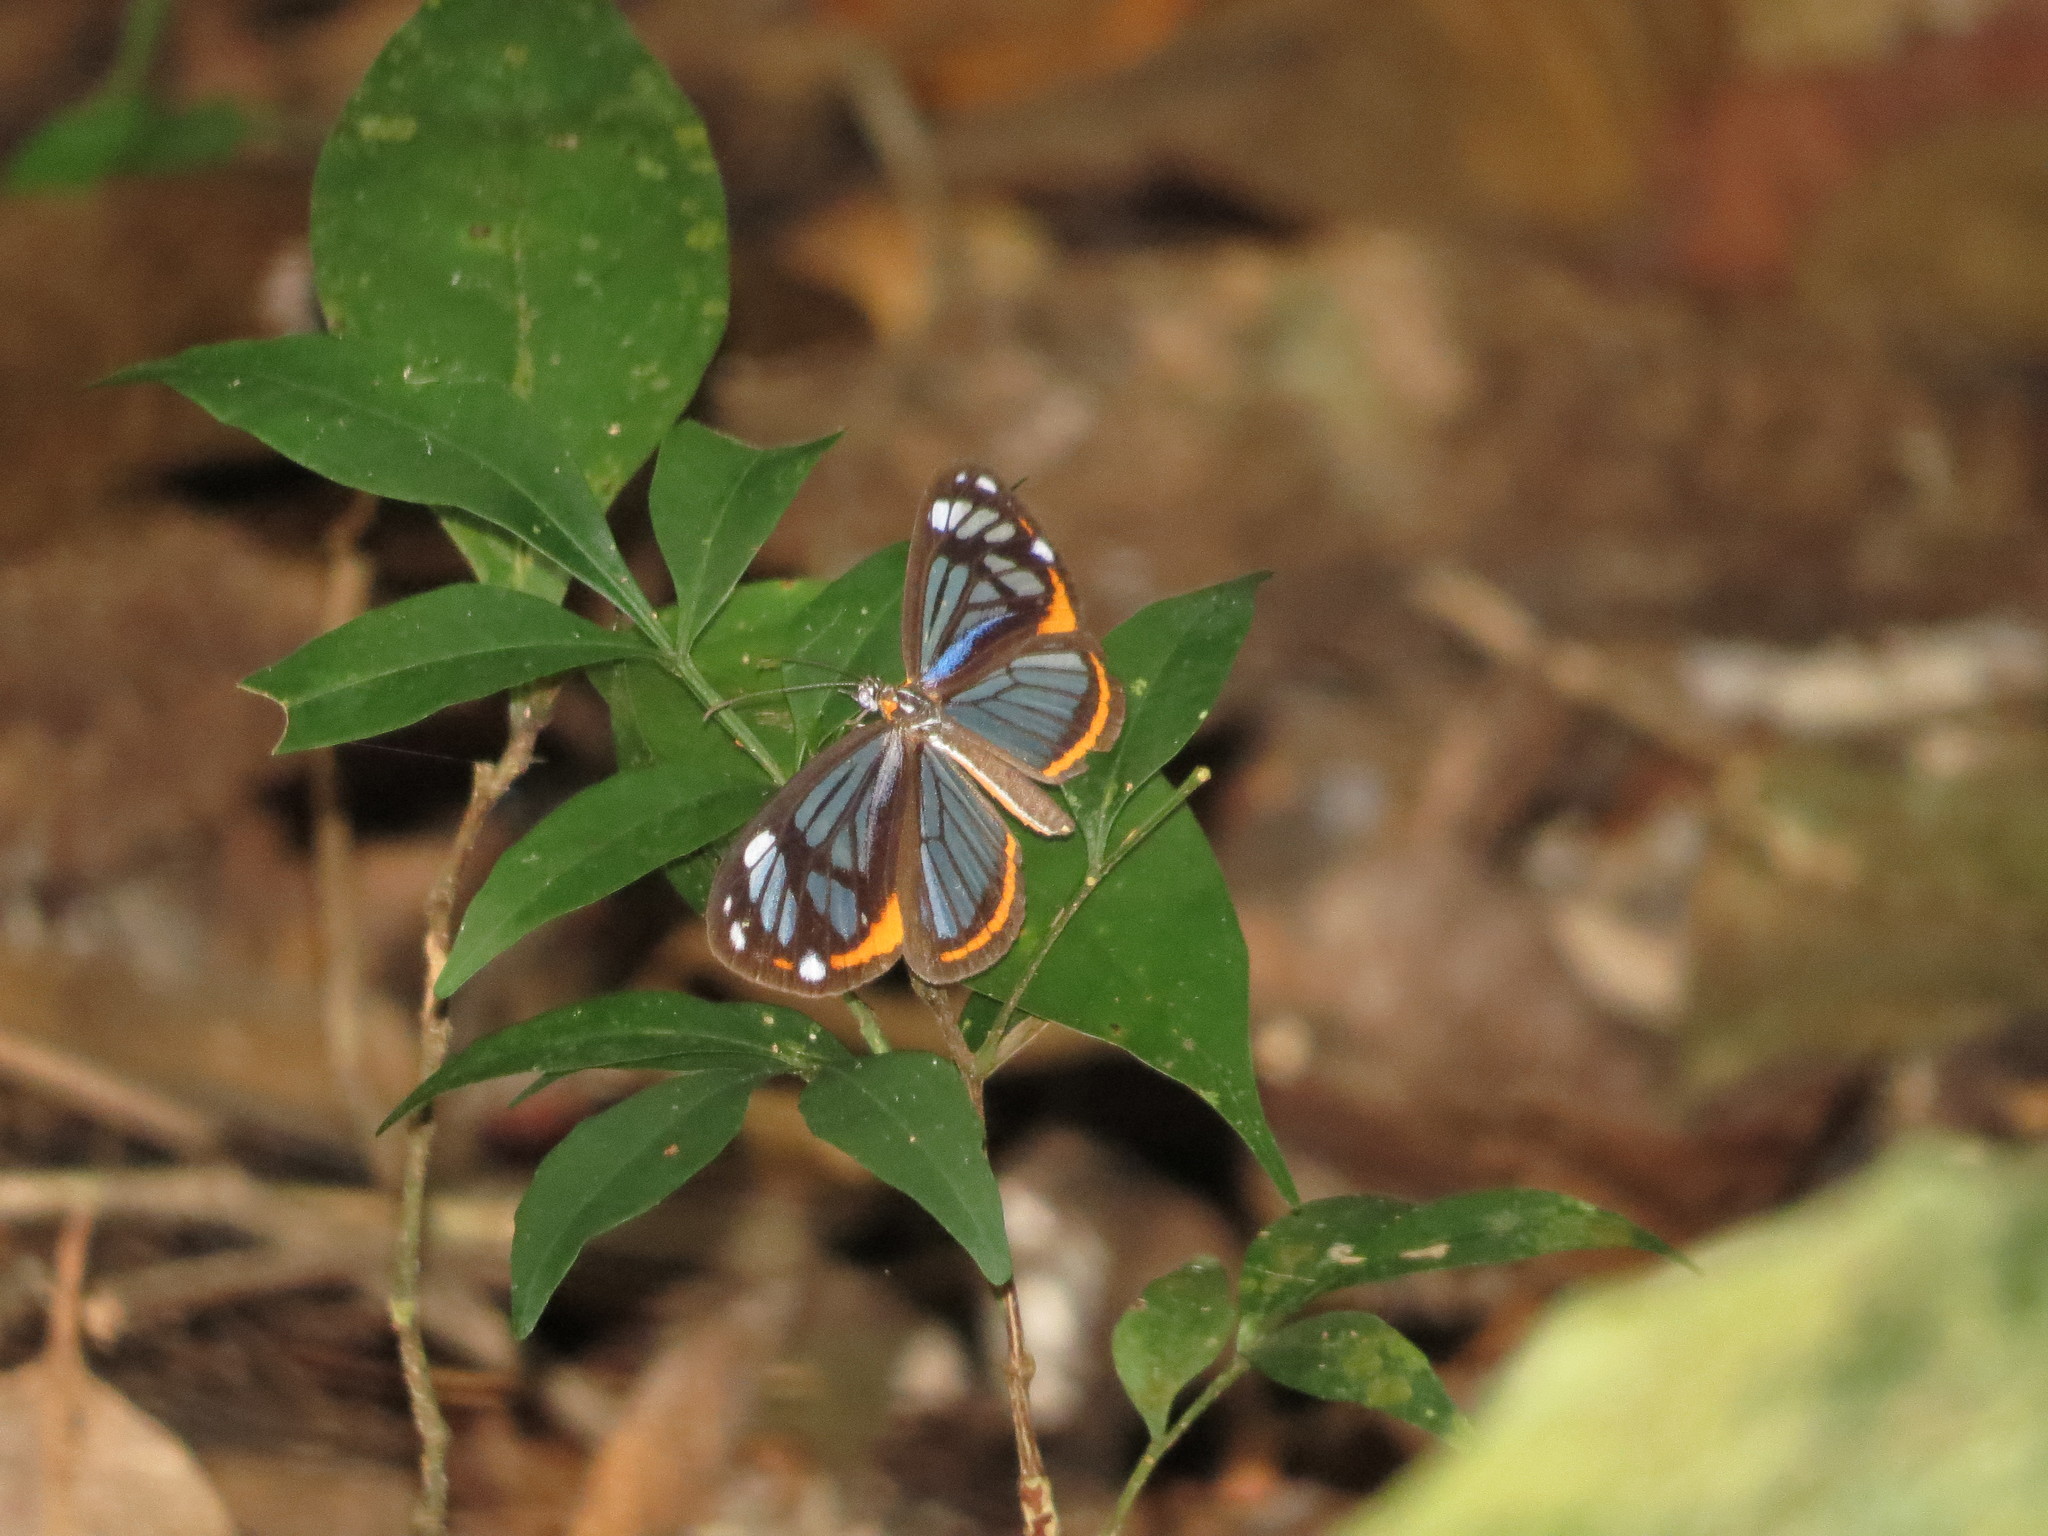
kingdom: Animalia
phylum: Arthropoda
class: Insecta
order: Lepidoptera
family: Riodinidae
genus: Stalachtis
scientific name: Stalachtis phaedusa
